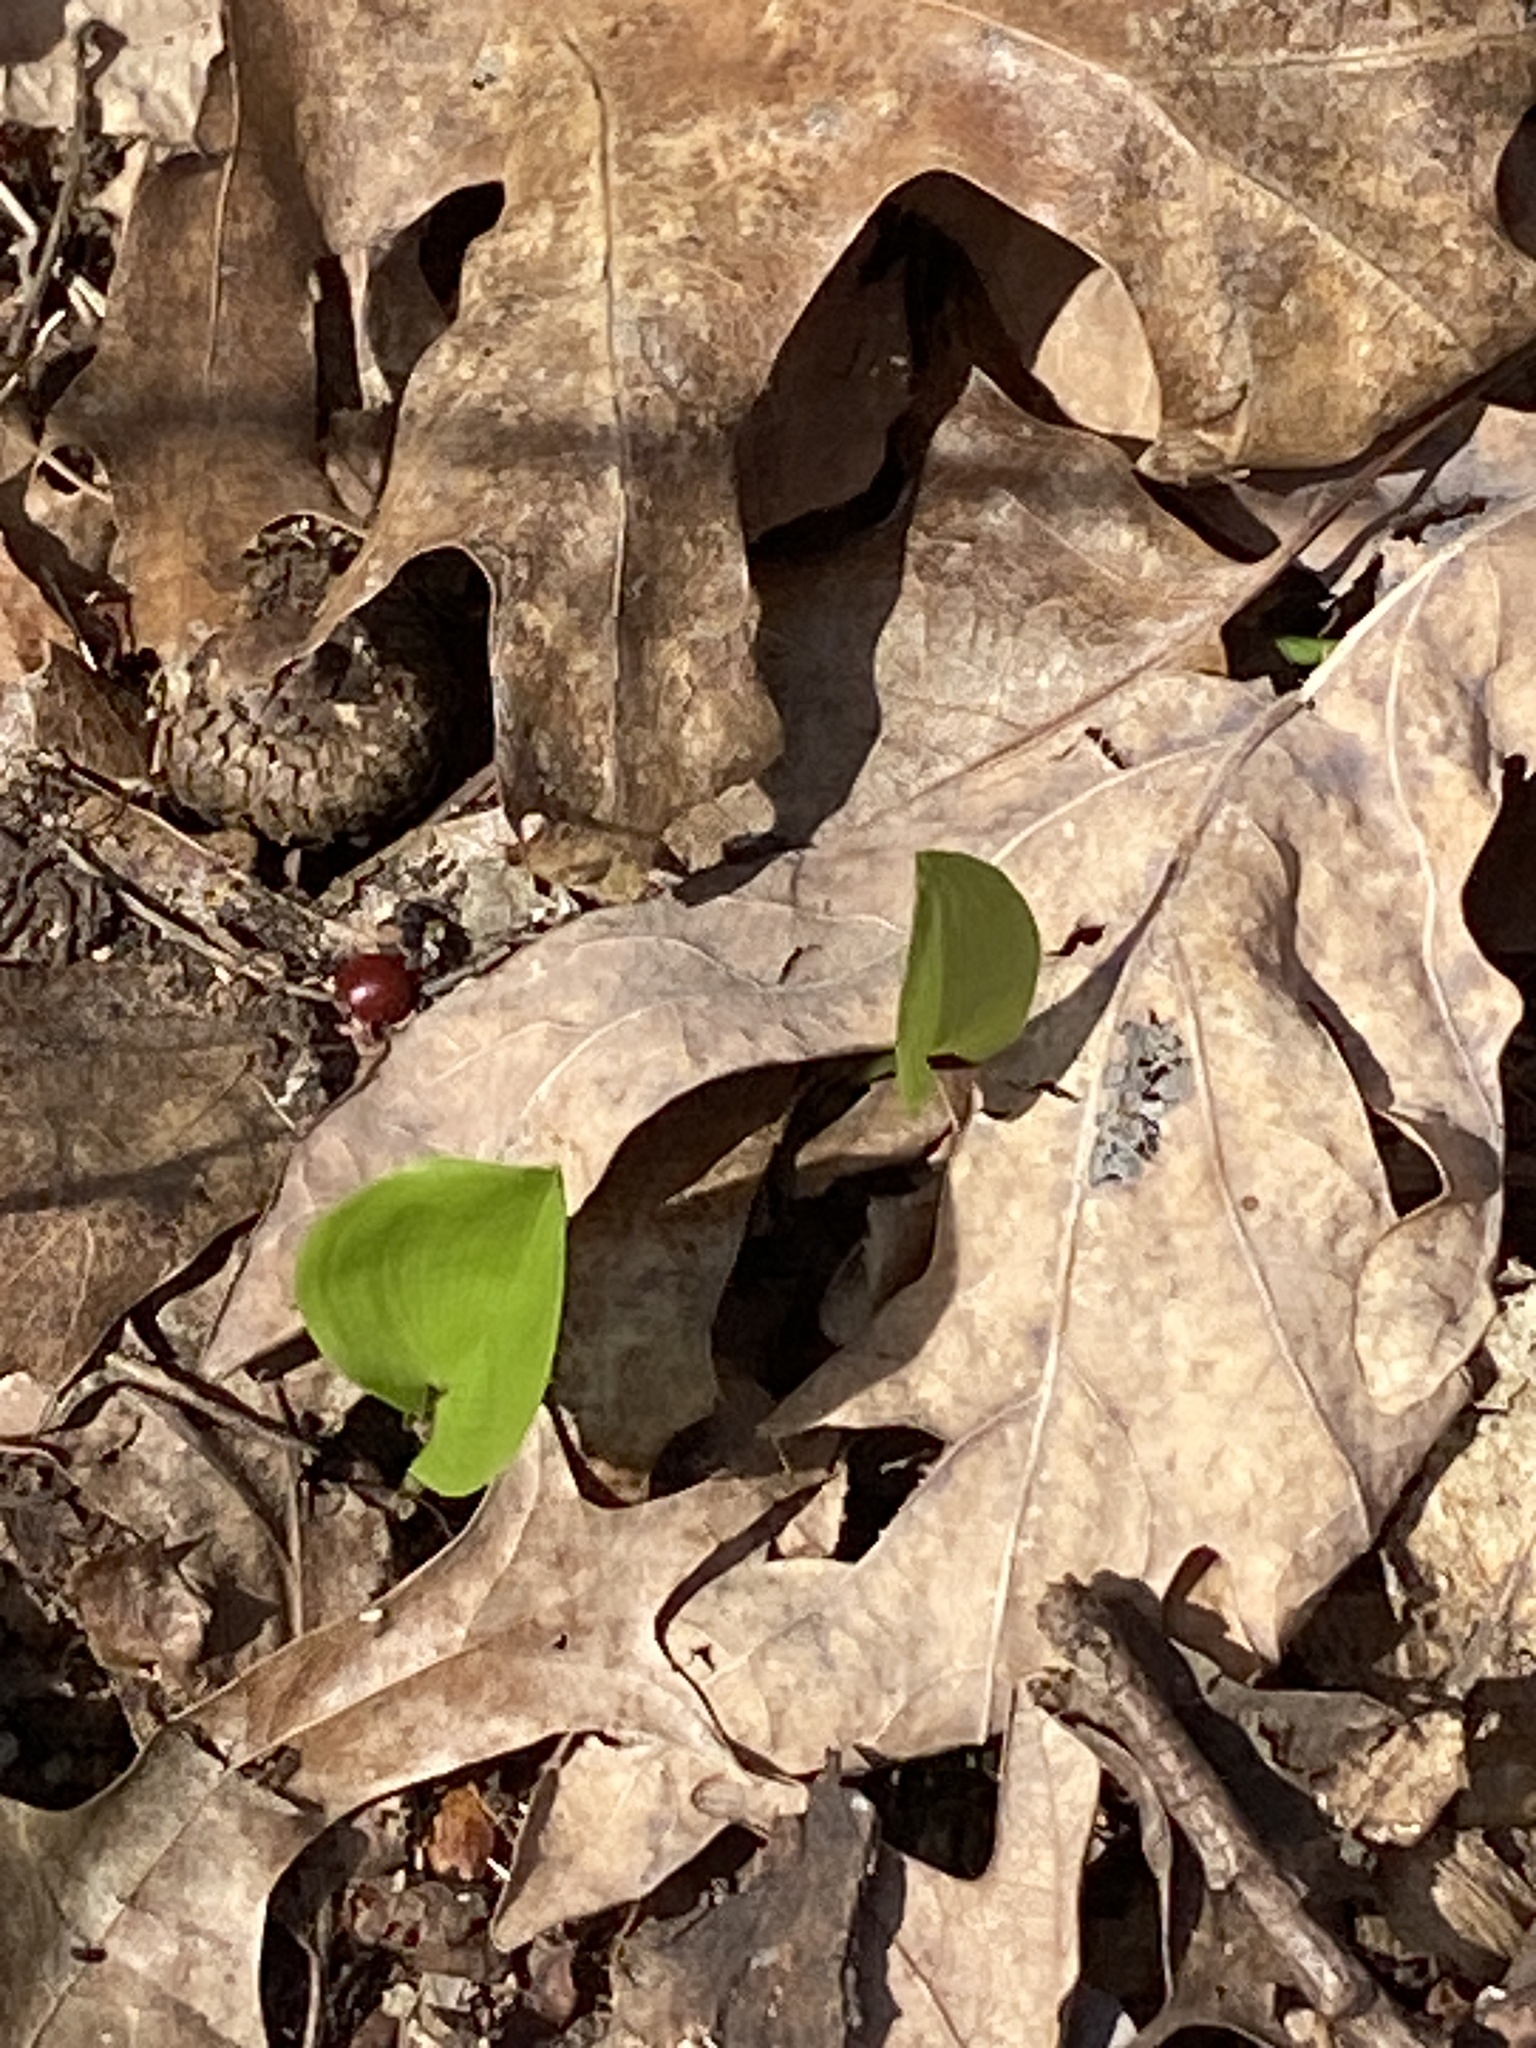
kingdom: Plantae
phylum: Tracheophyta
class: Liliopsida
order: Asparagales
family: Asparagaceae
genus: Maianthemum
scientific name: Maianthemum canadense
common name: False lily-of-the-valley
